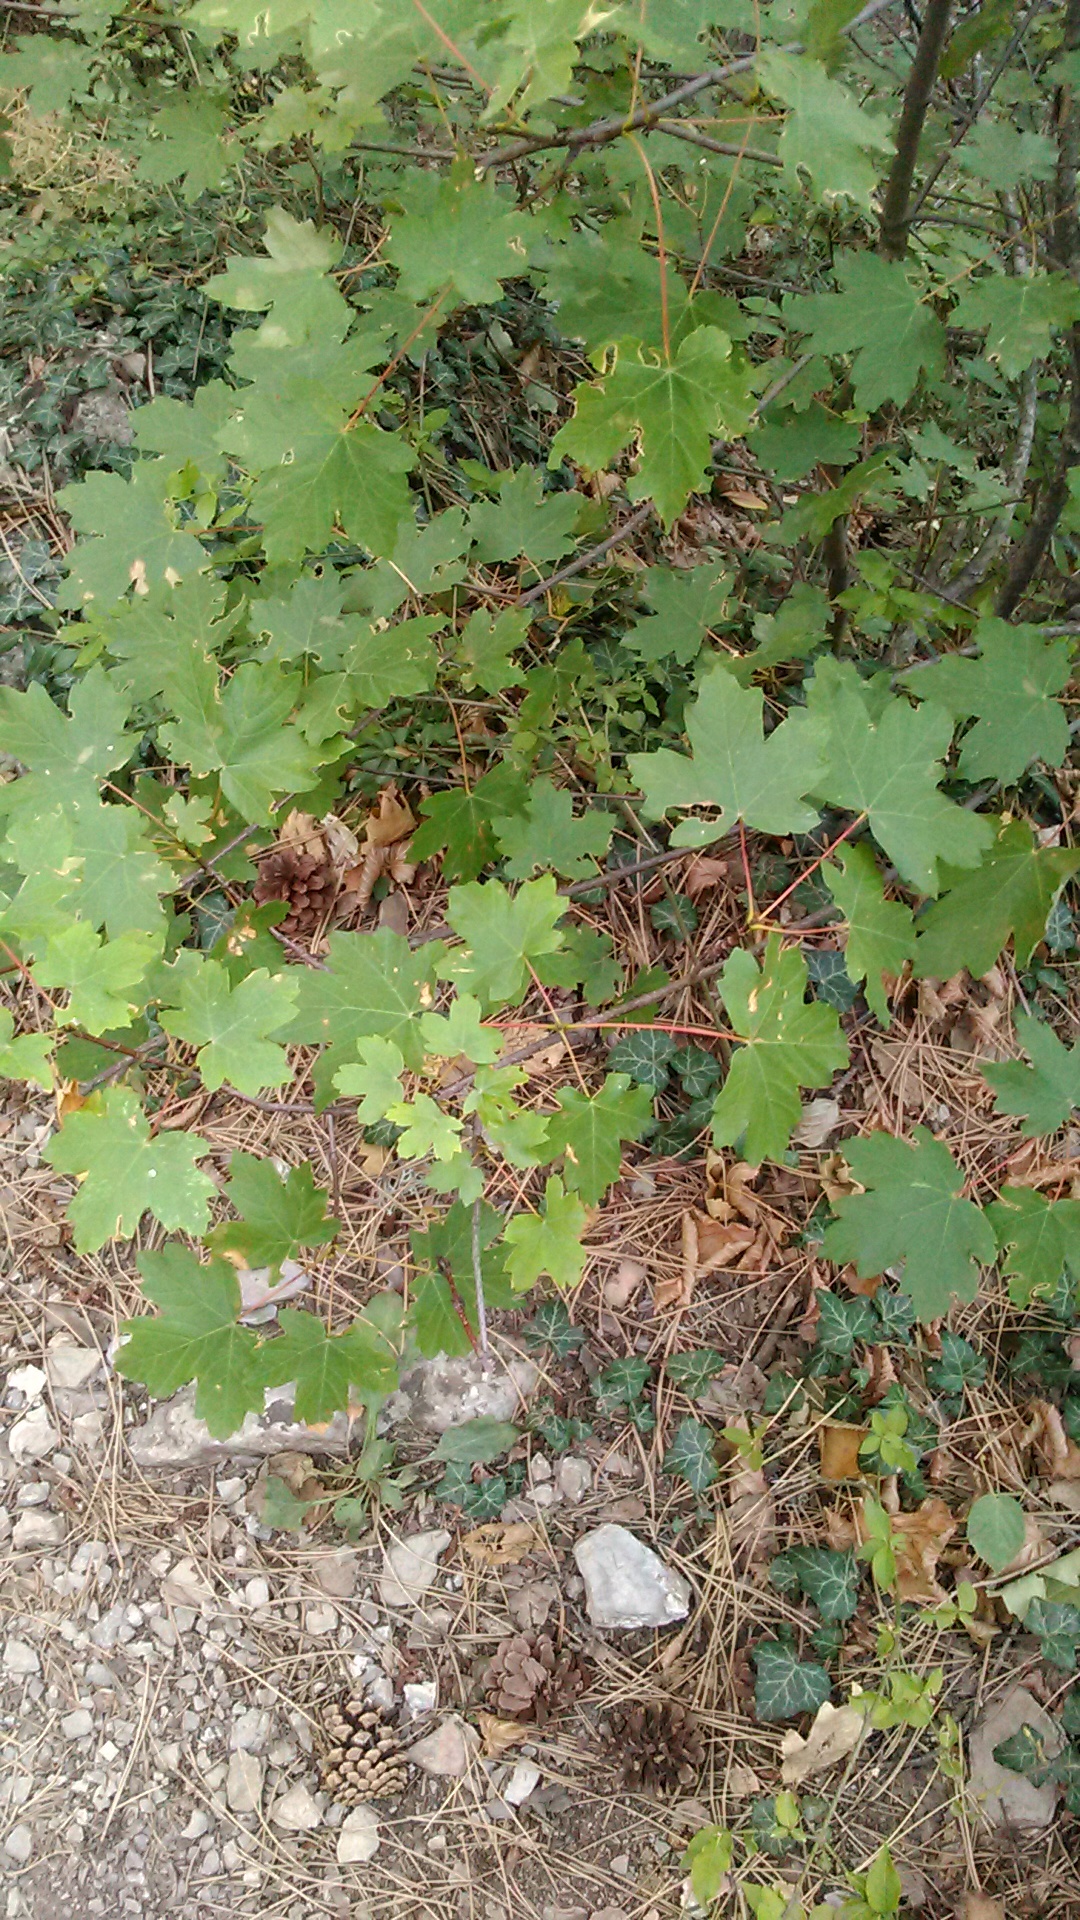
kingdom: Plantae
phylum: Tracheophyta
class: Magnoliopsida
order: Sapindales
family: Sapindaceae
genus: Acer
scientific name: Acer campestre
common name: Field maple
